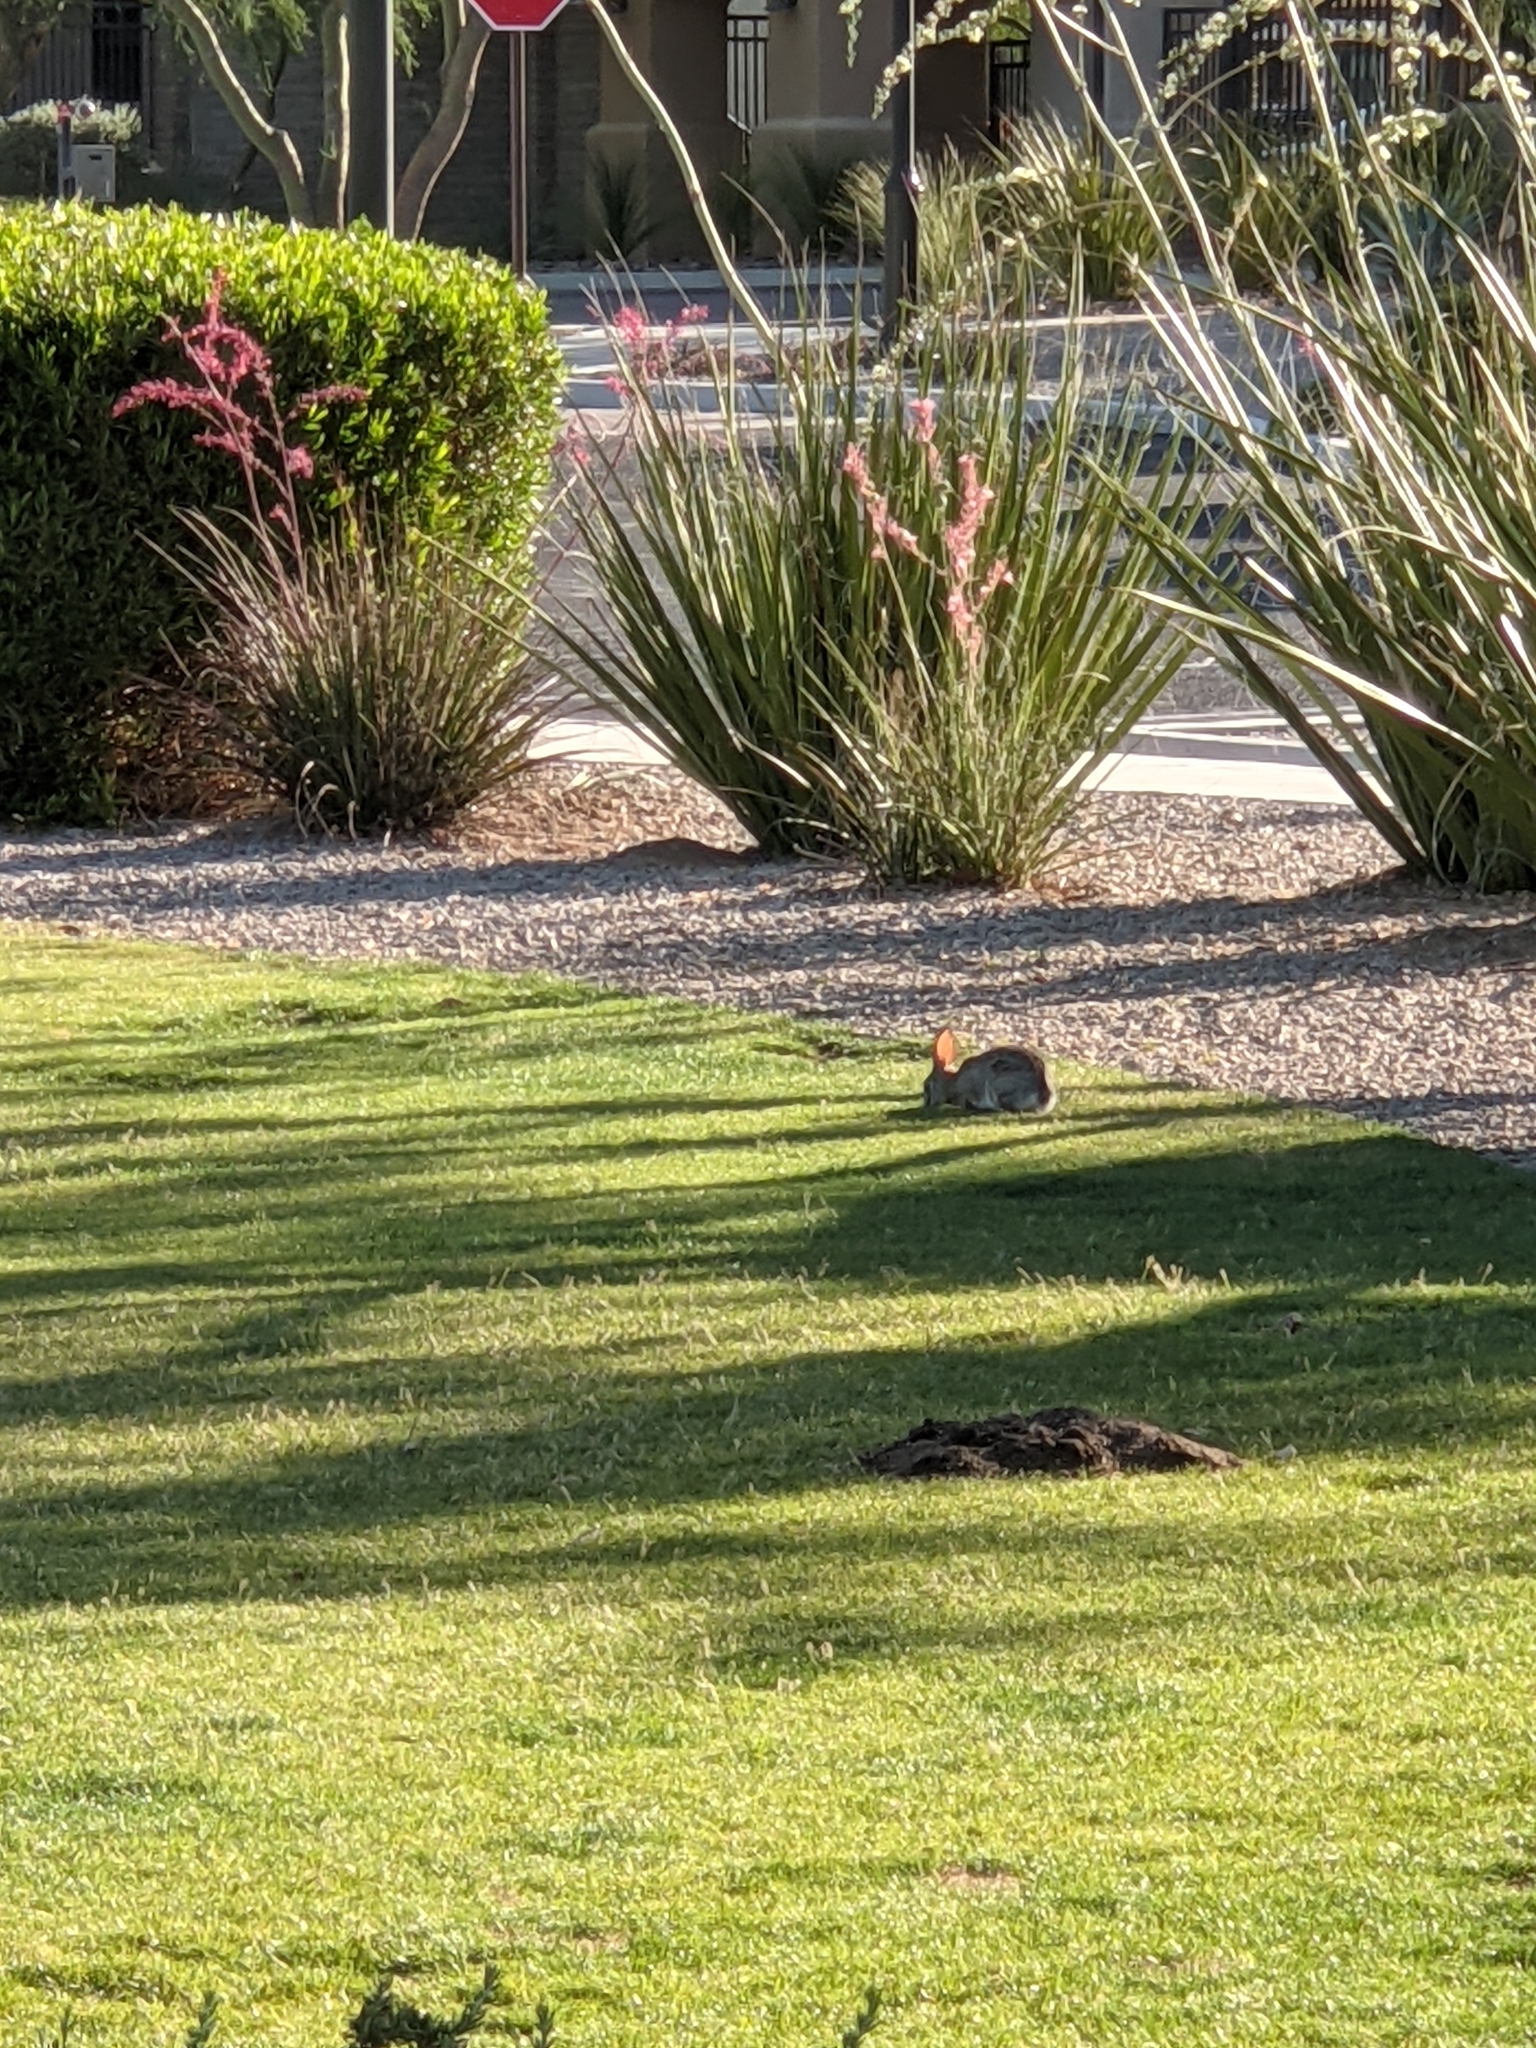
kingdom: Animalia
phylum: Chordata
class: Mammalia
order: Lagomorpha
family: Leporidae
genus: Sylvilagus
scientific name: Sylvilagus audubonii
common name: Desert cottontail
